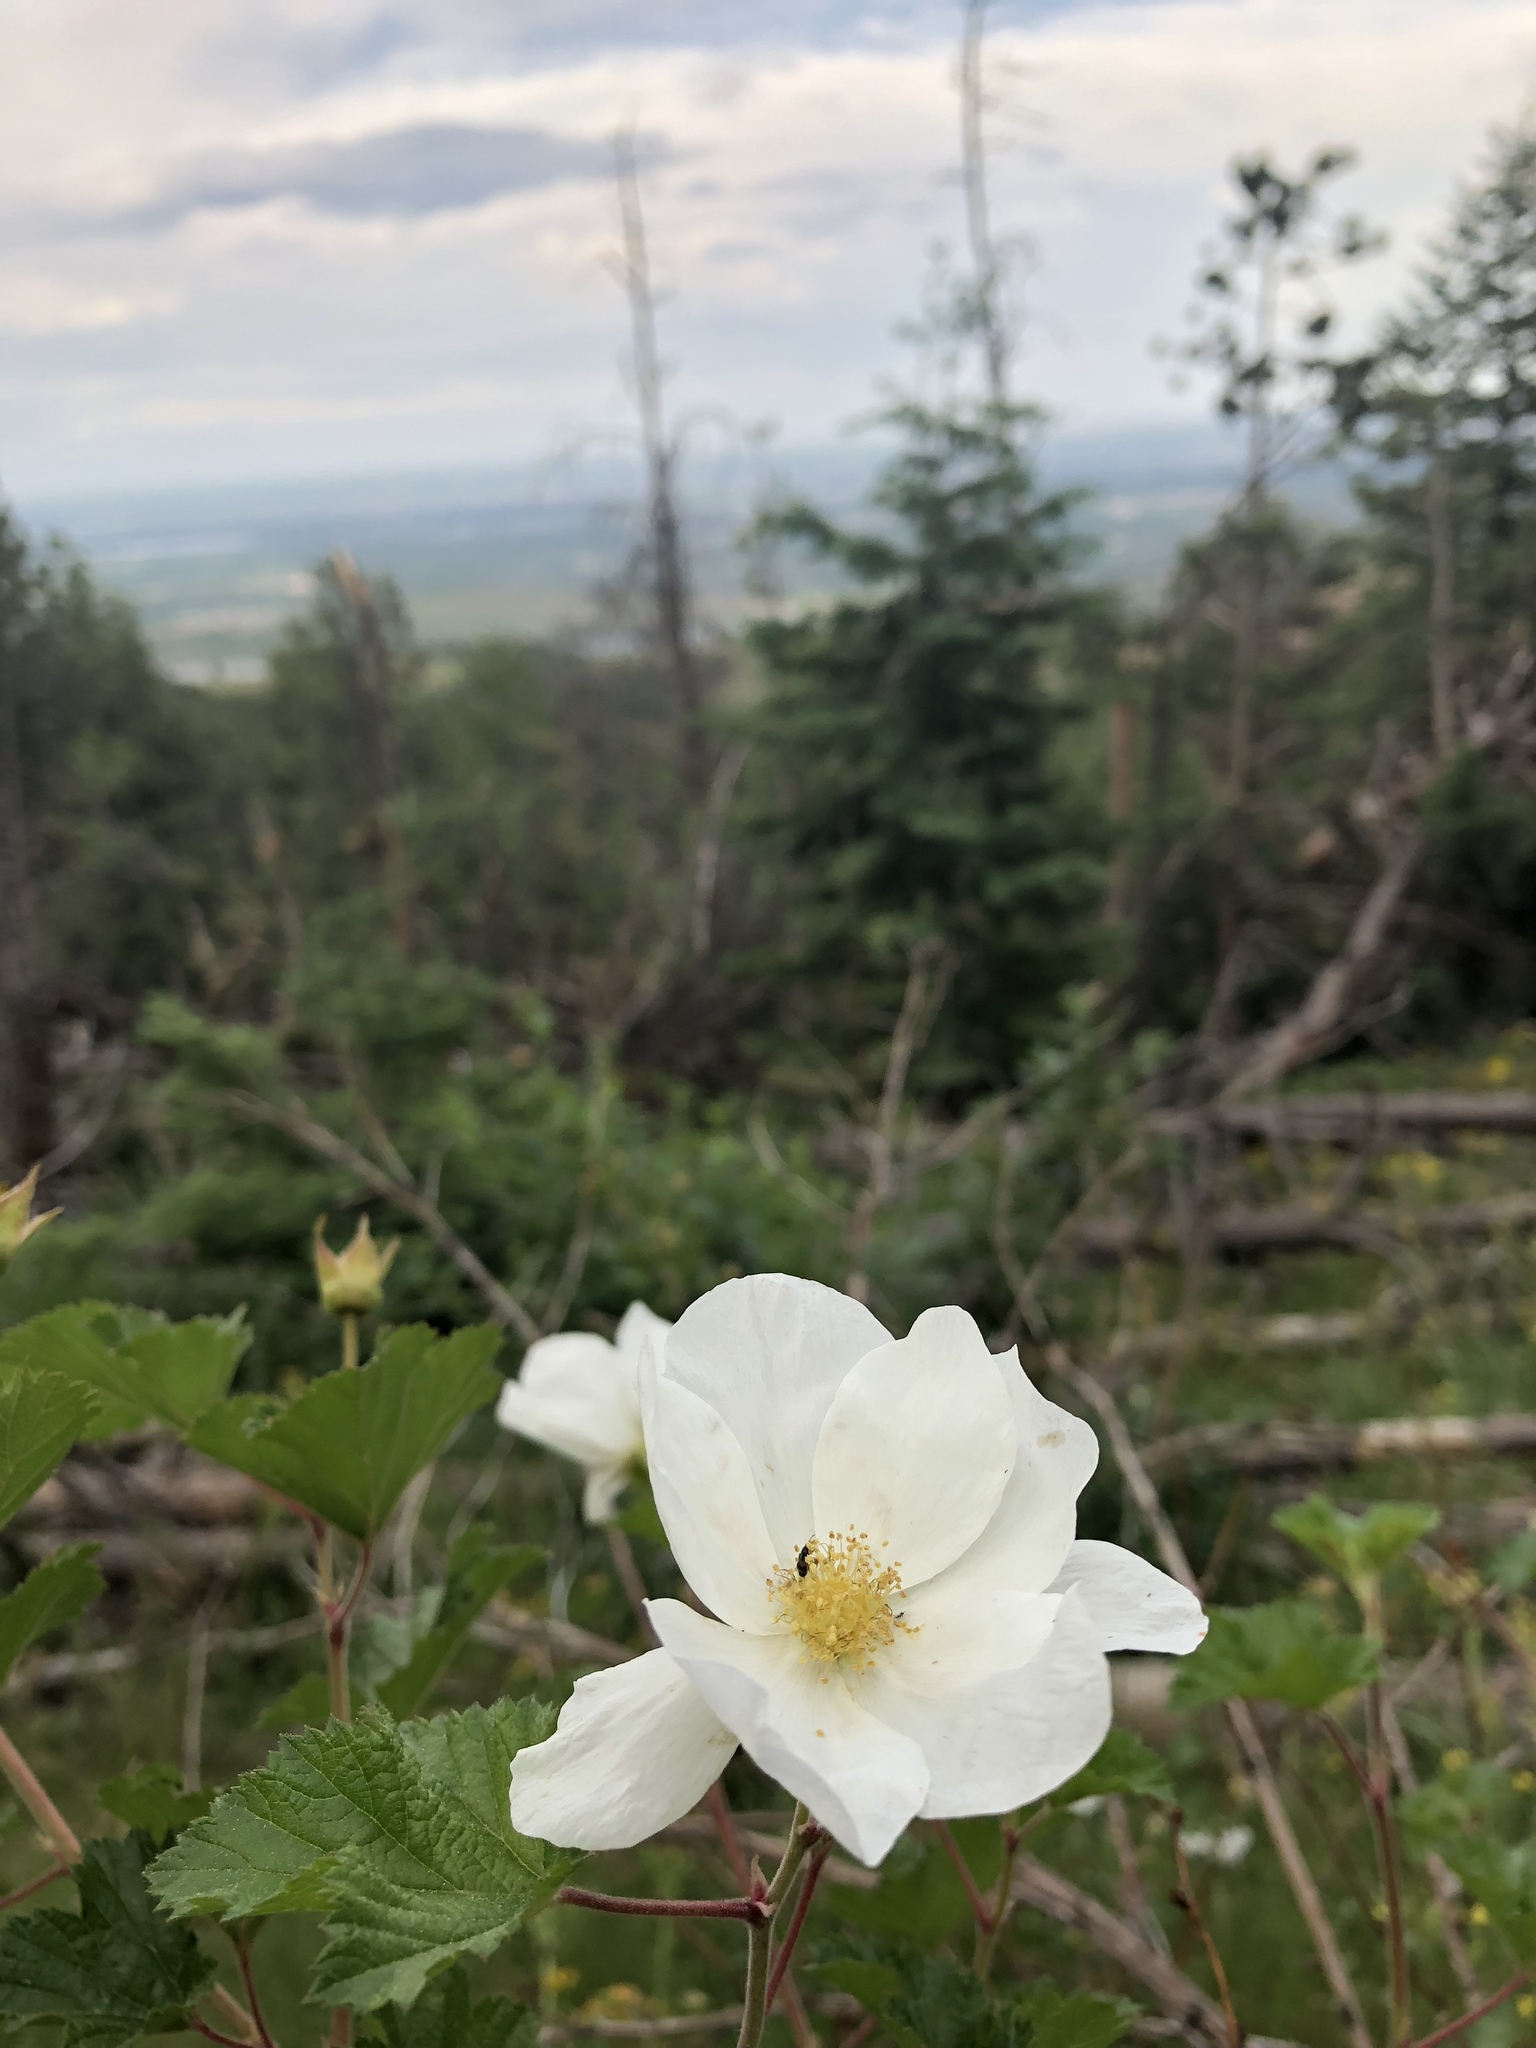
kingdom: Plantae
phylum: Tracheophyta
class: Magnoliopsida
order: Rosales
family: Rosaceae
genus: Rubus
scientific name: Rubus deliciosus
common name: Rocky mountain raspberry
